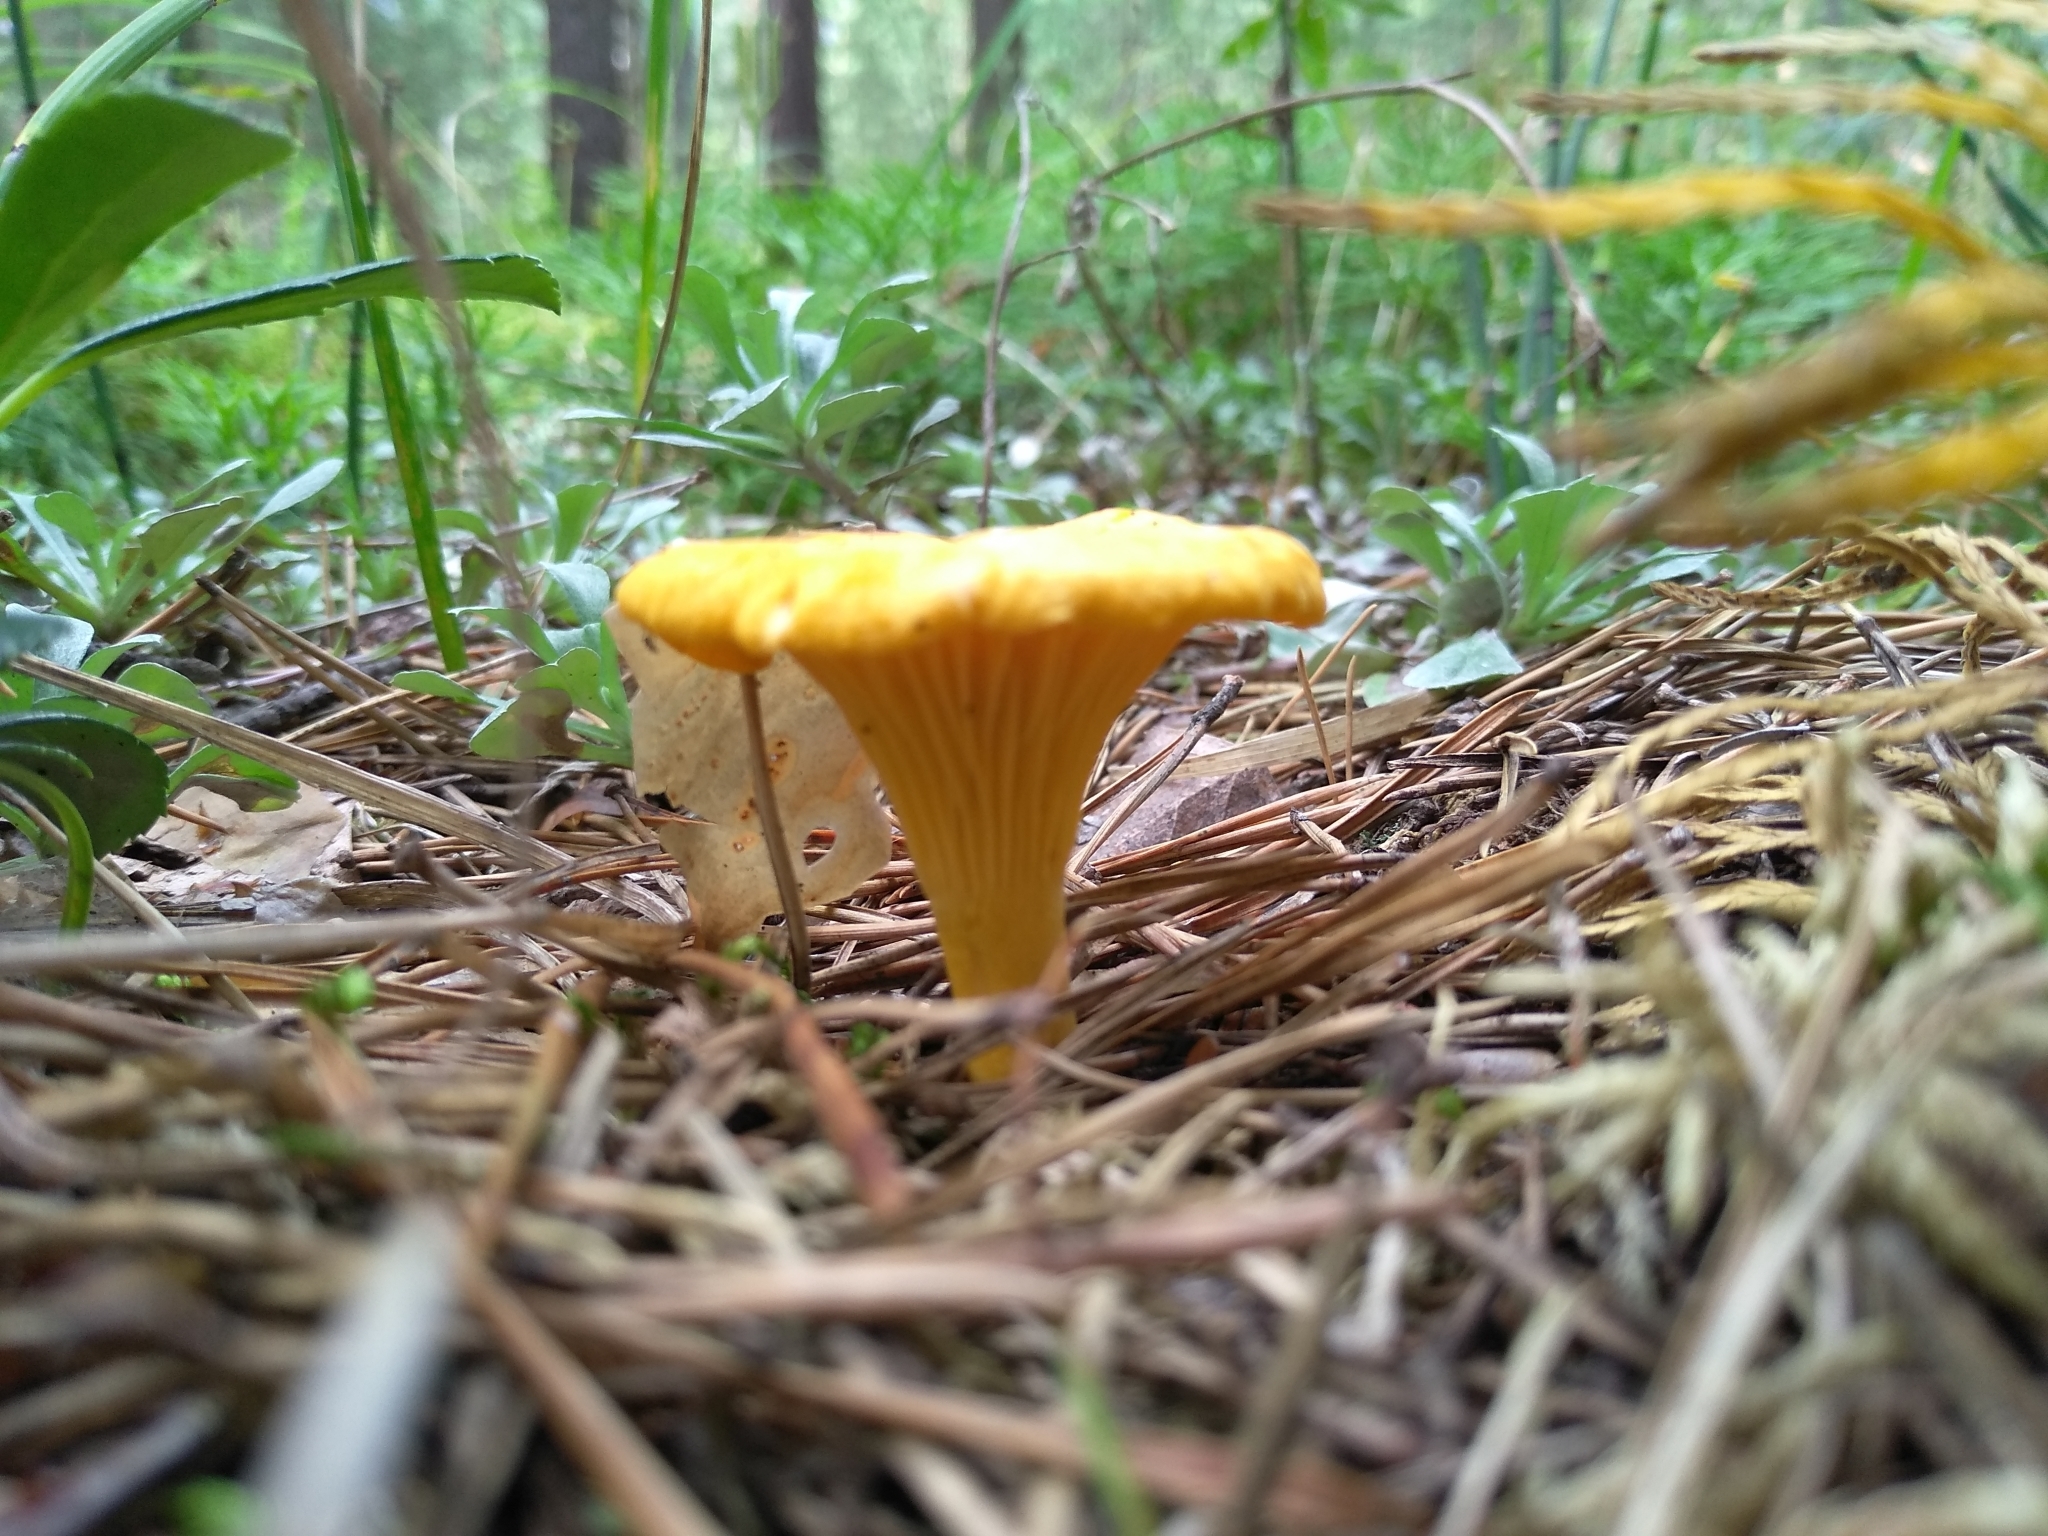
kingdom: Fungi
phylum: Basidiomycota
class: Agaricomycetes
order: Cantharellales
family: Hydnaceae
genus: Cantharellus
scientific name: Cantharellus cibarius
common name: Chanterelle
